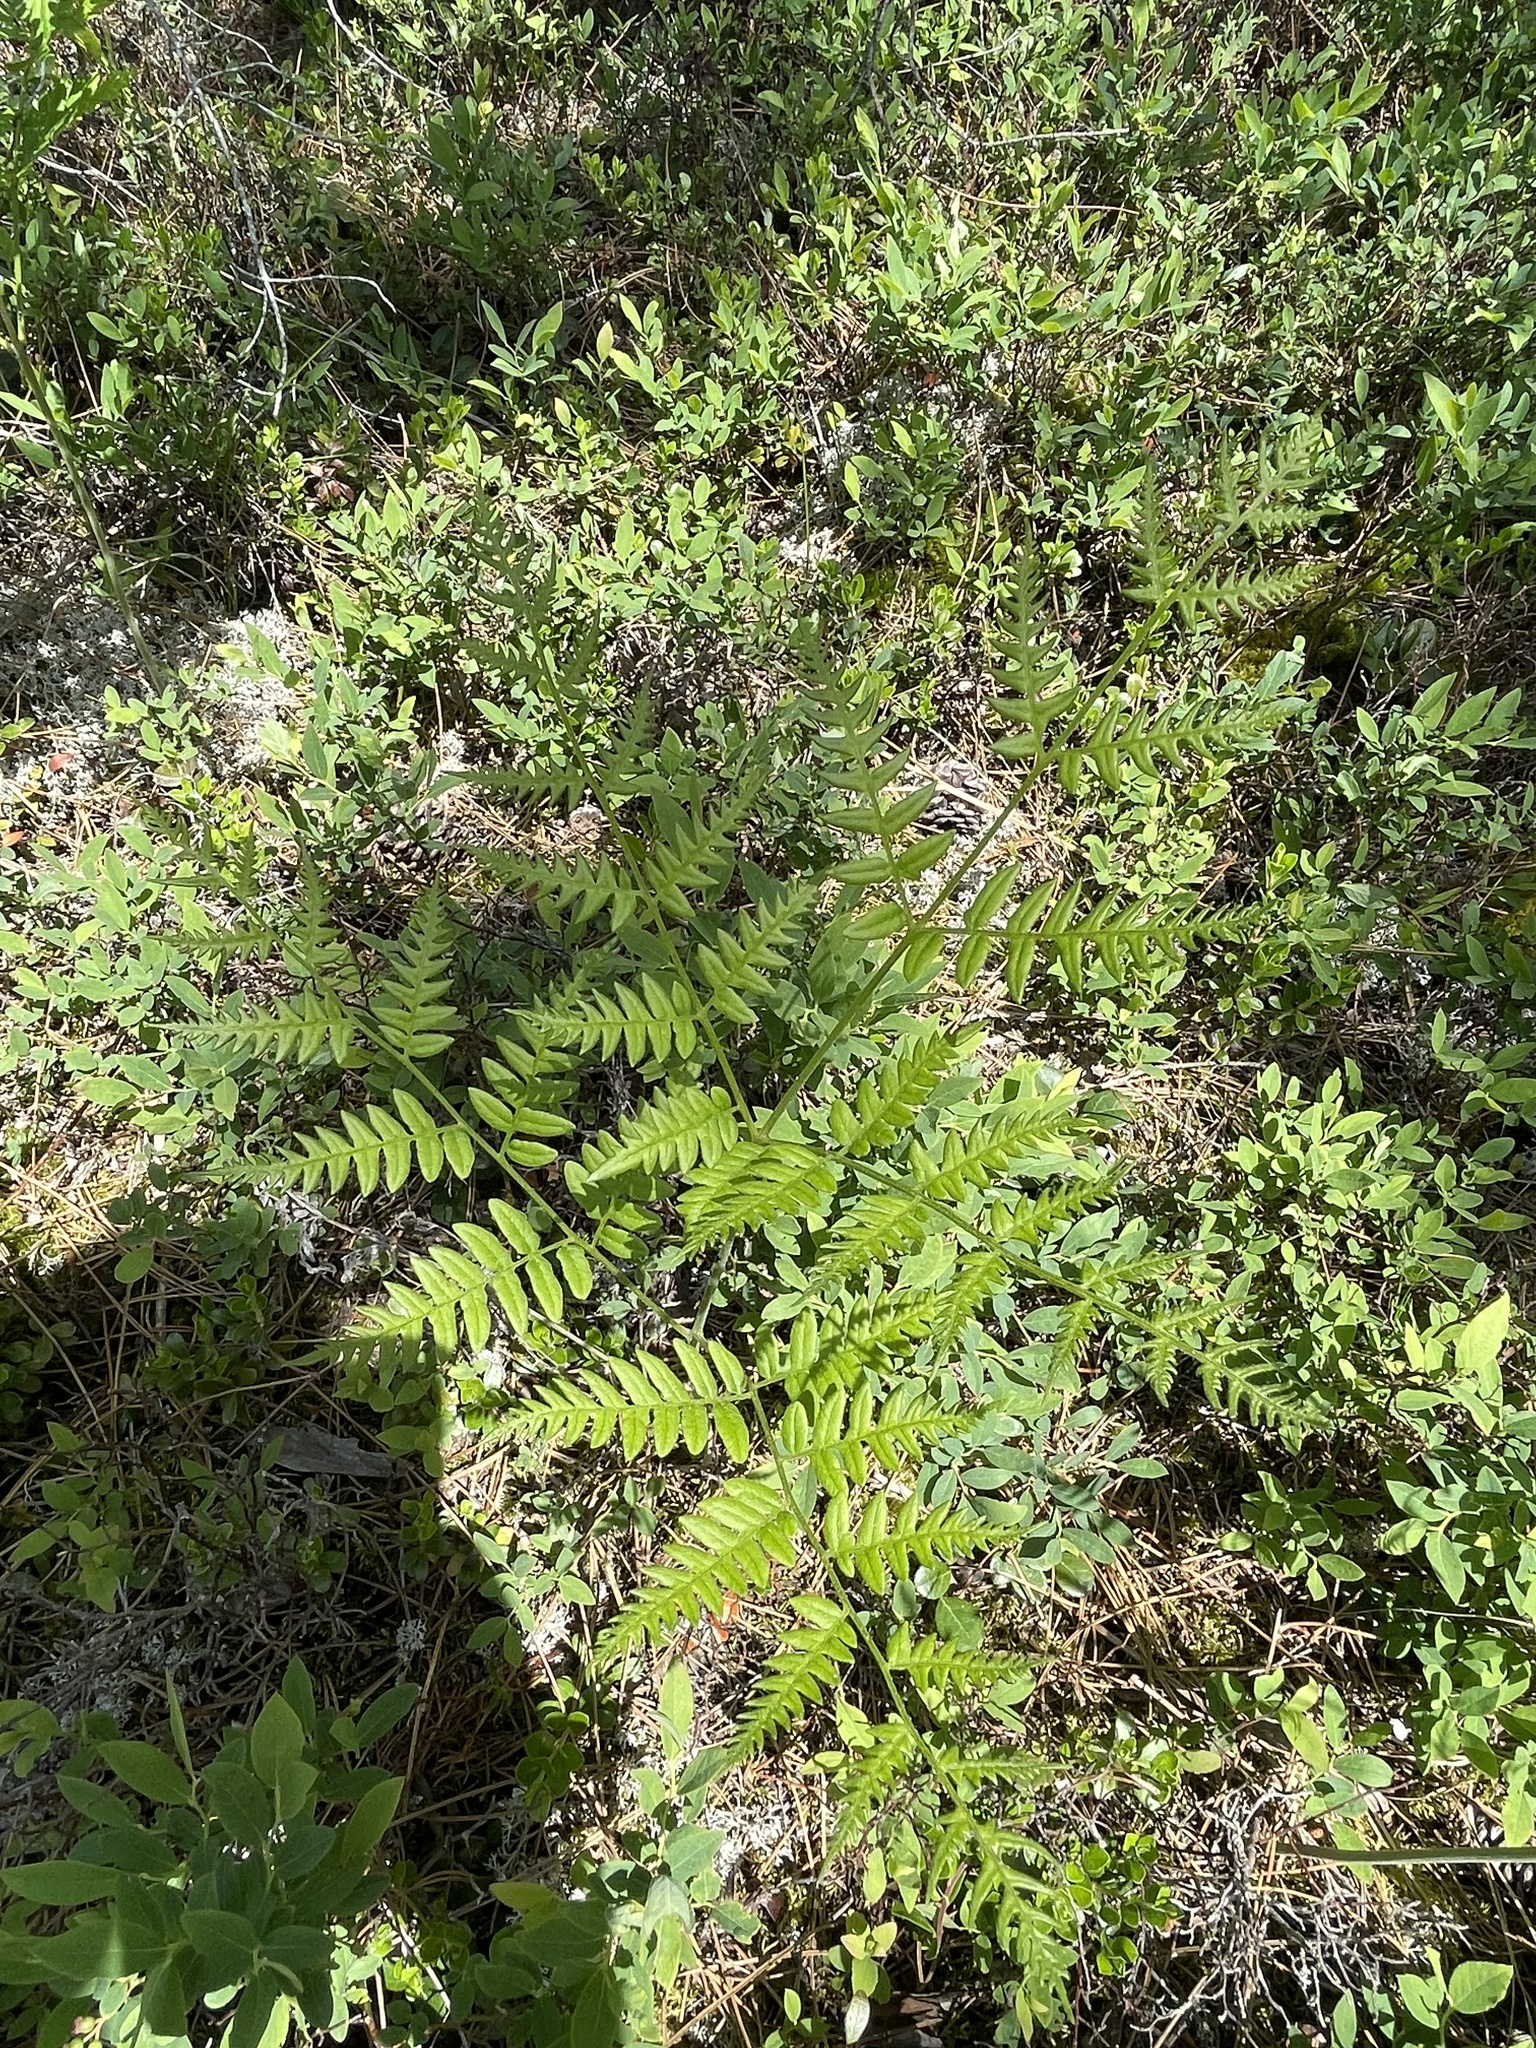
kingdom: Plantae
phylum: Tracheophyta
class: Polypodiopsida
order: Polypodiales
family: Dennstaedtiaceae
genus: Pteridium
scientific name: Pteridium aquilinum
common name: Bracken
